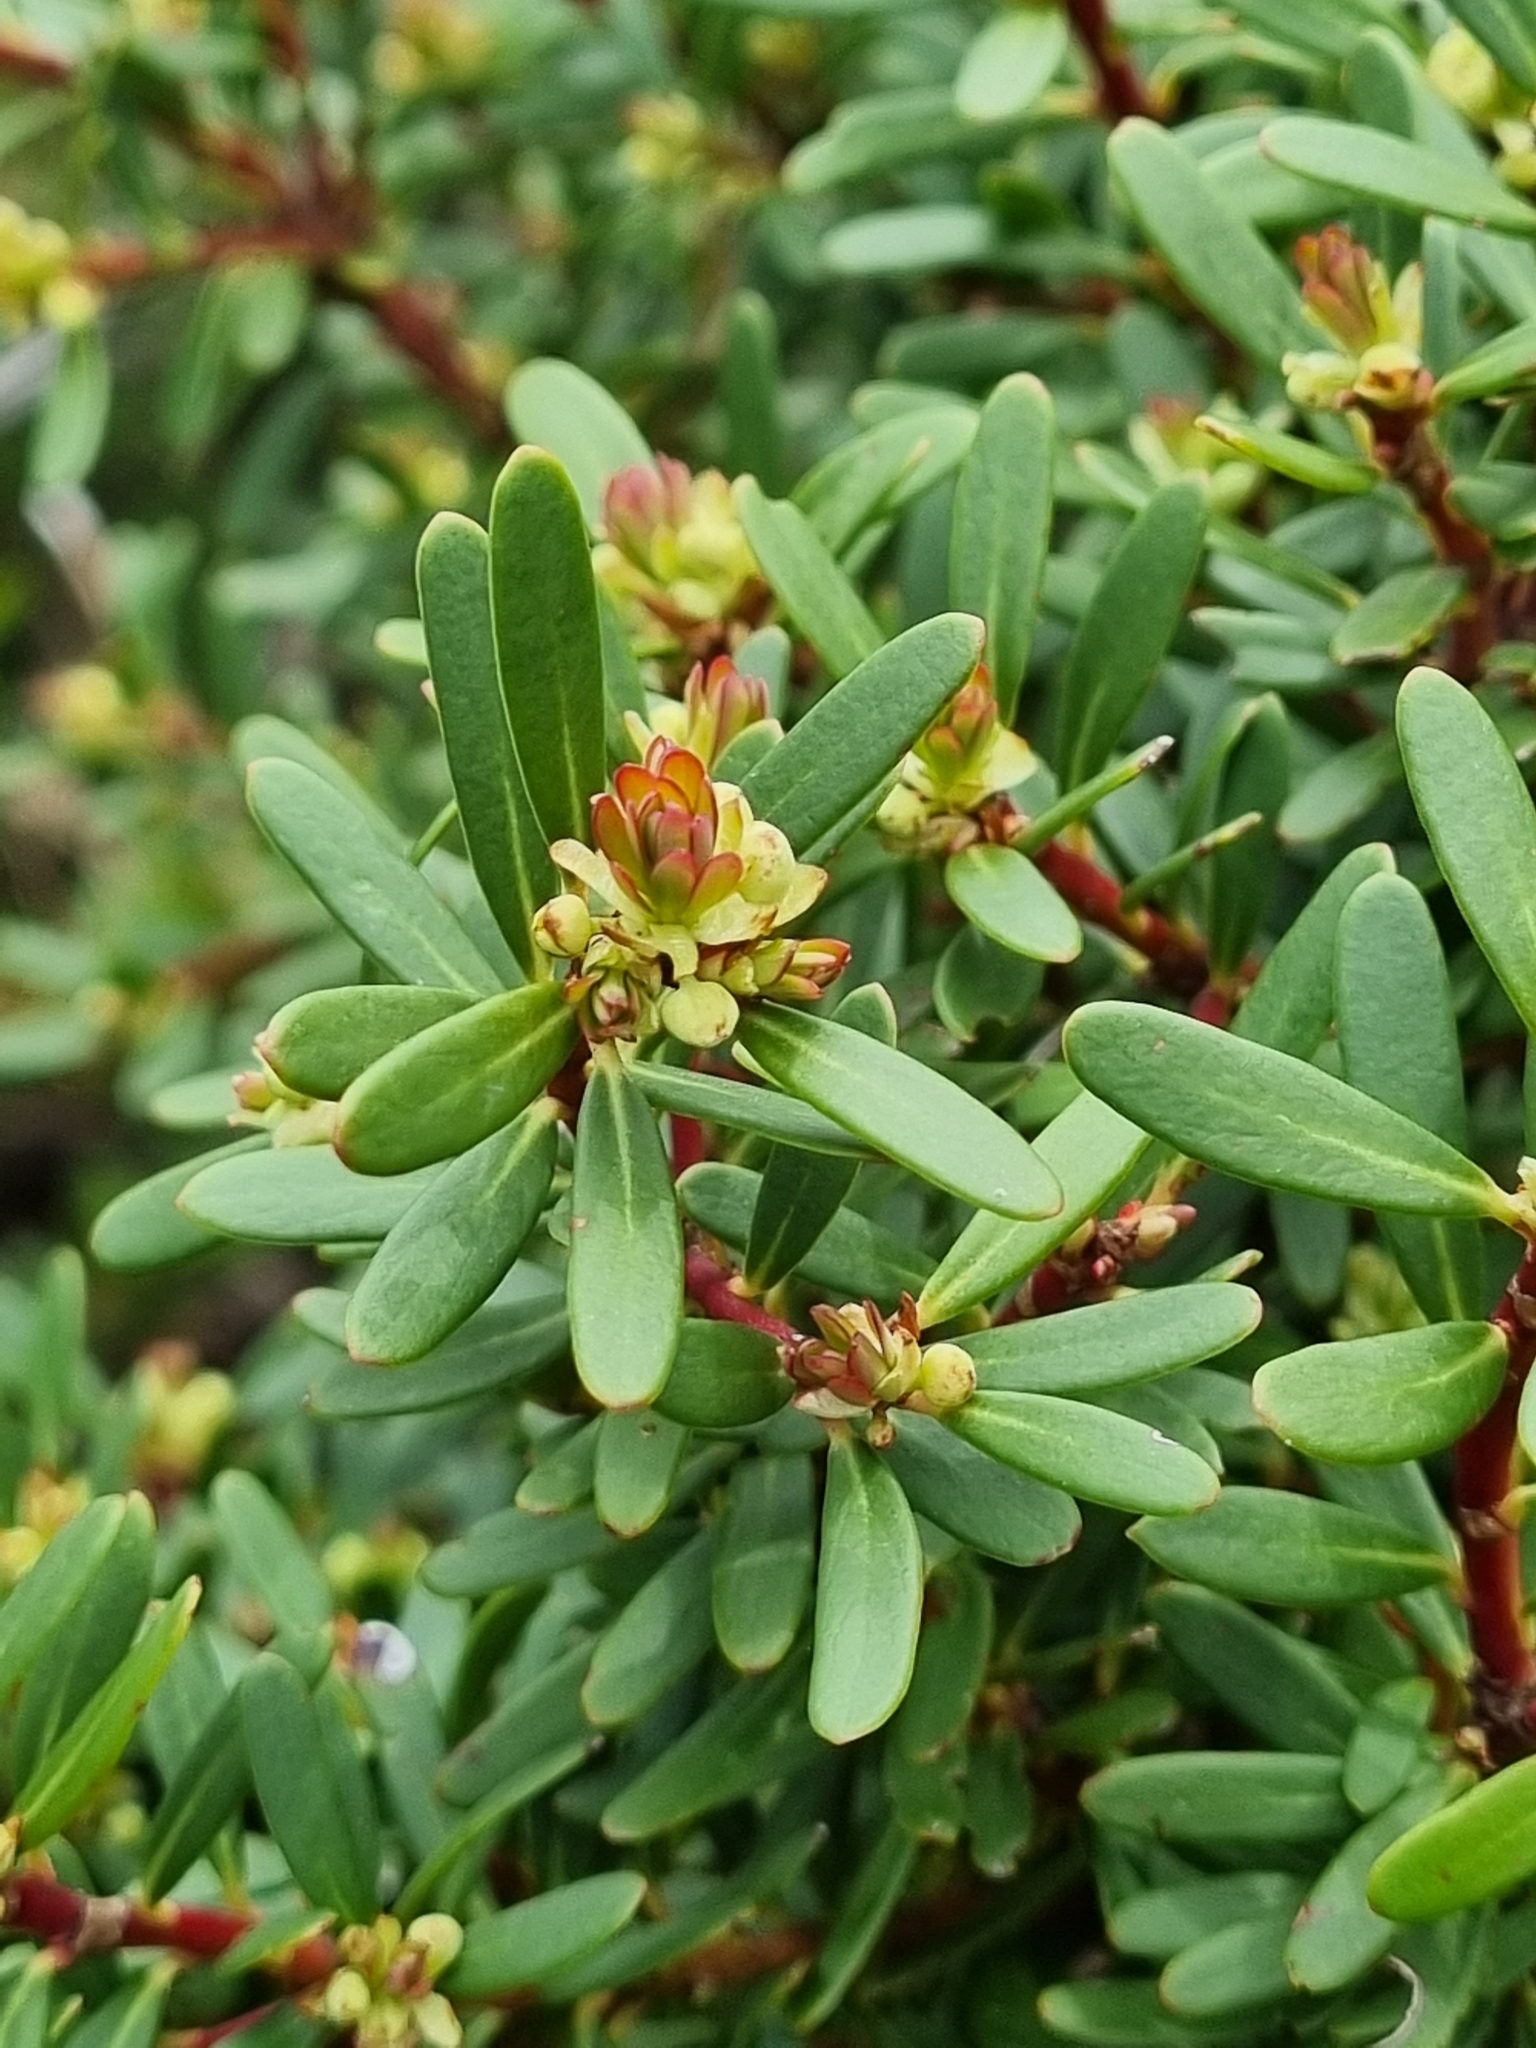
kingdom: Plantae
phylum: Tracheophyta
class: Magnoliopsida
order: Canellales
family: Winteraceae
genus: Drimys
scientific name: Drimys vickeriana
